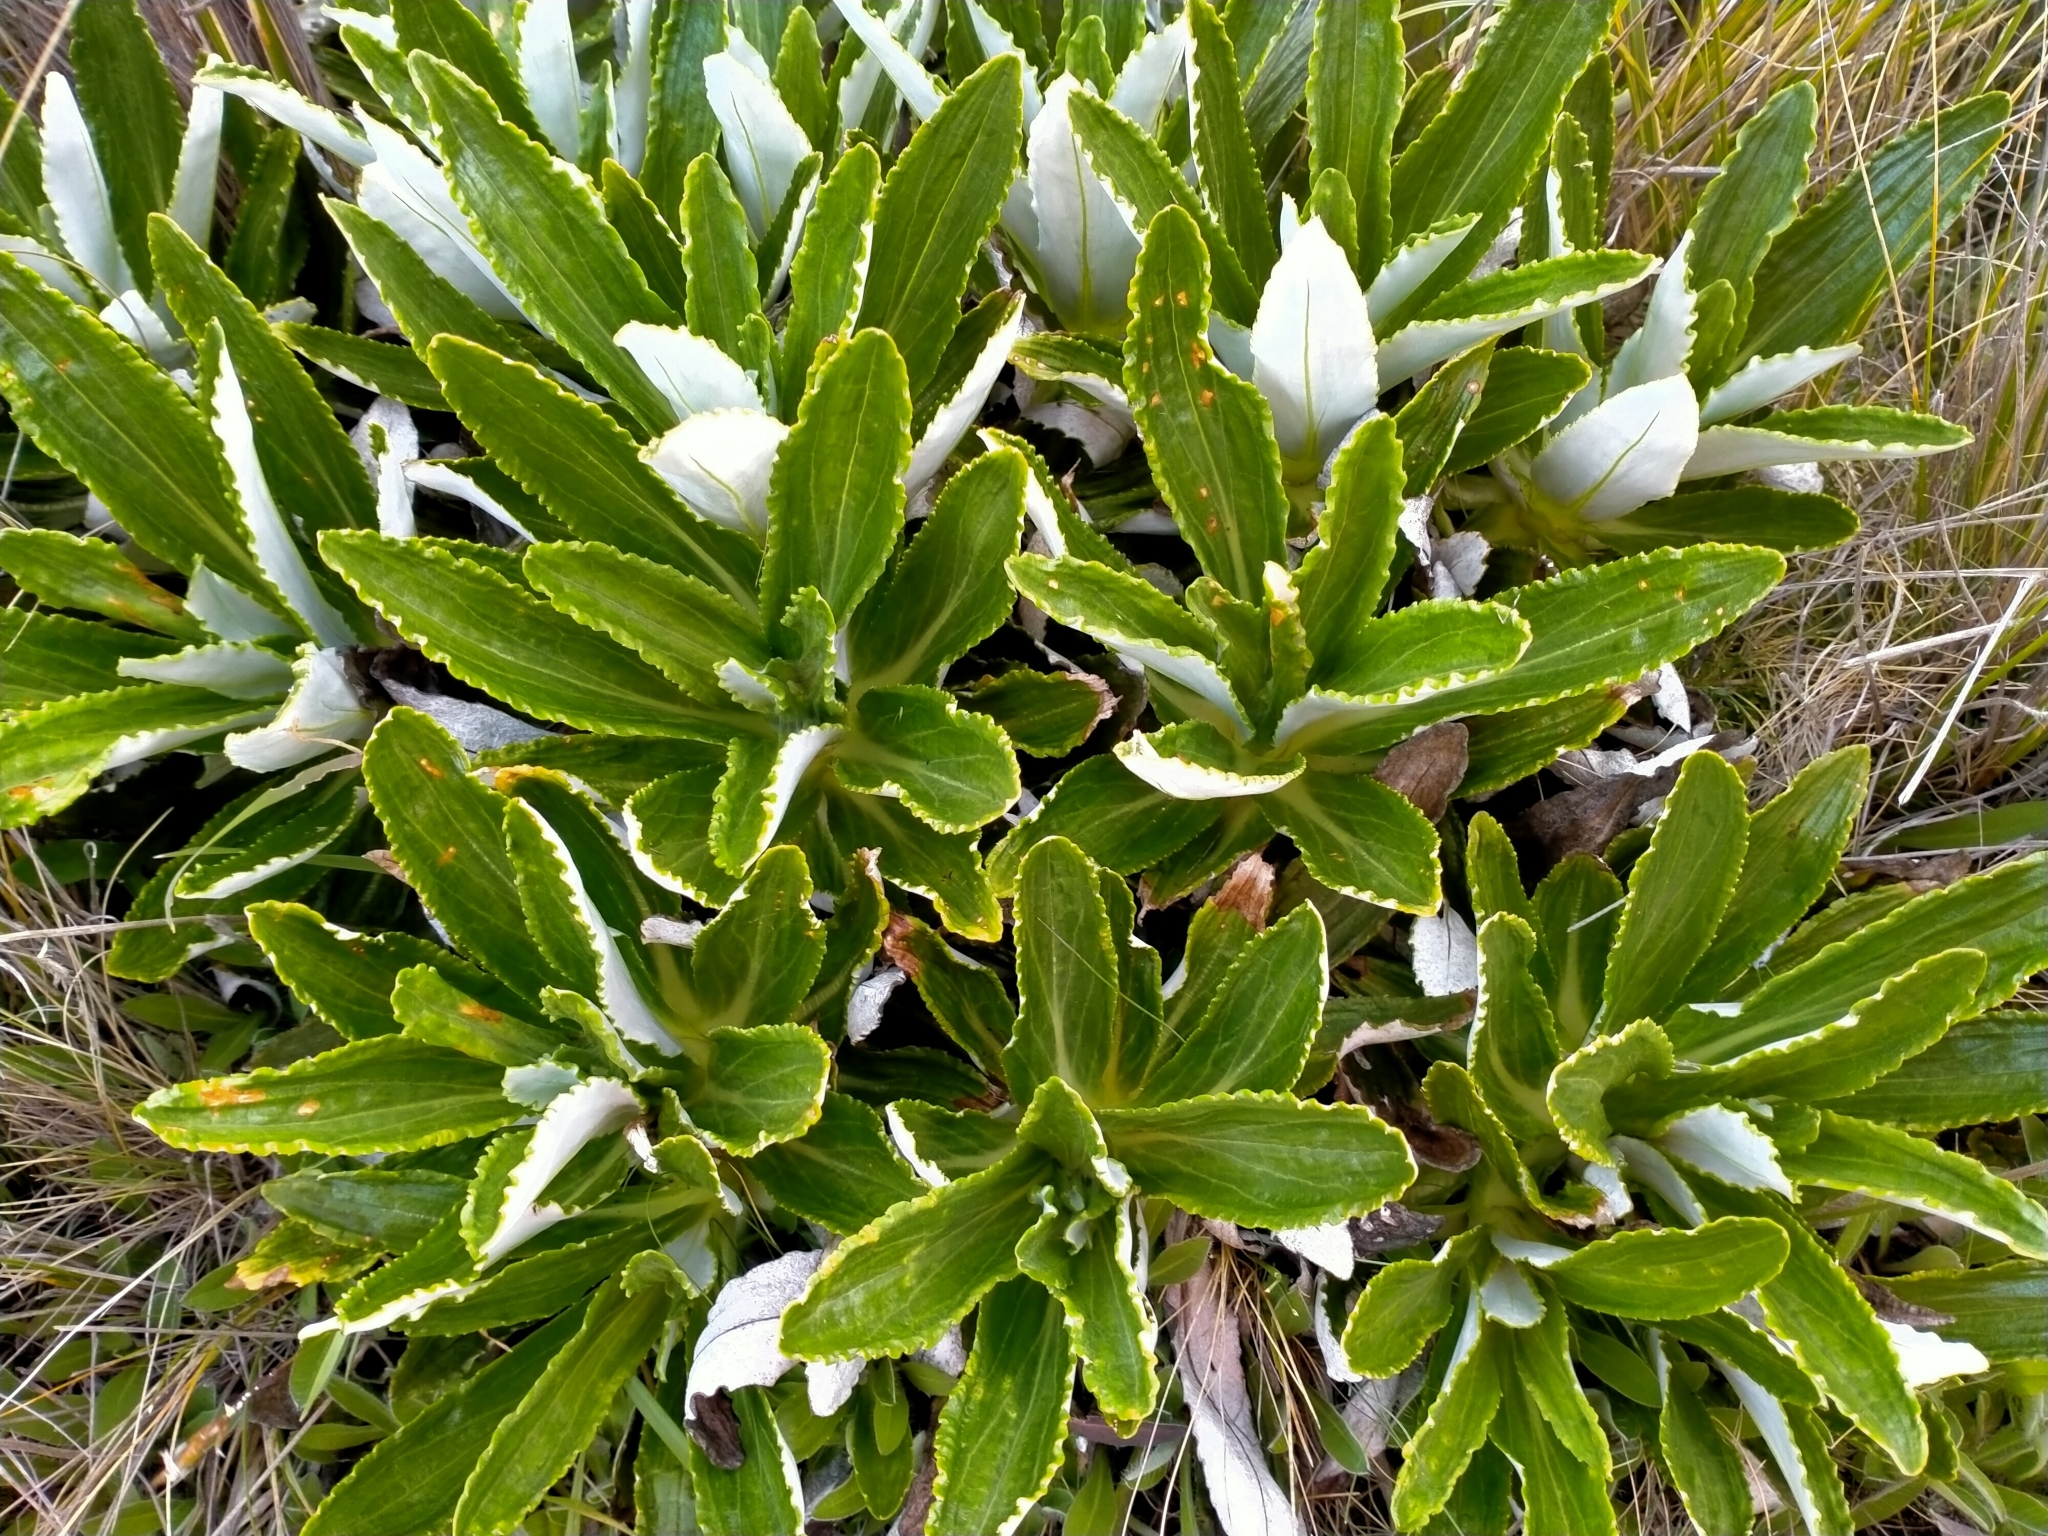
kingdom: Plantae
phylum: Tracheophyta
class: Magnoliopsida
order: Asterales
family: Asteraceae
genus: Celmisia
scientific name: Celmisia densiflora
